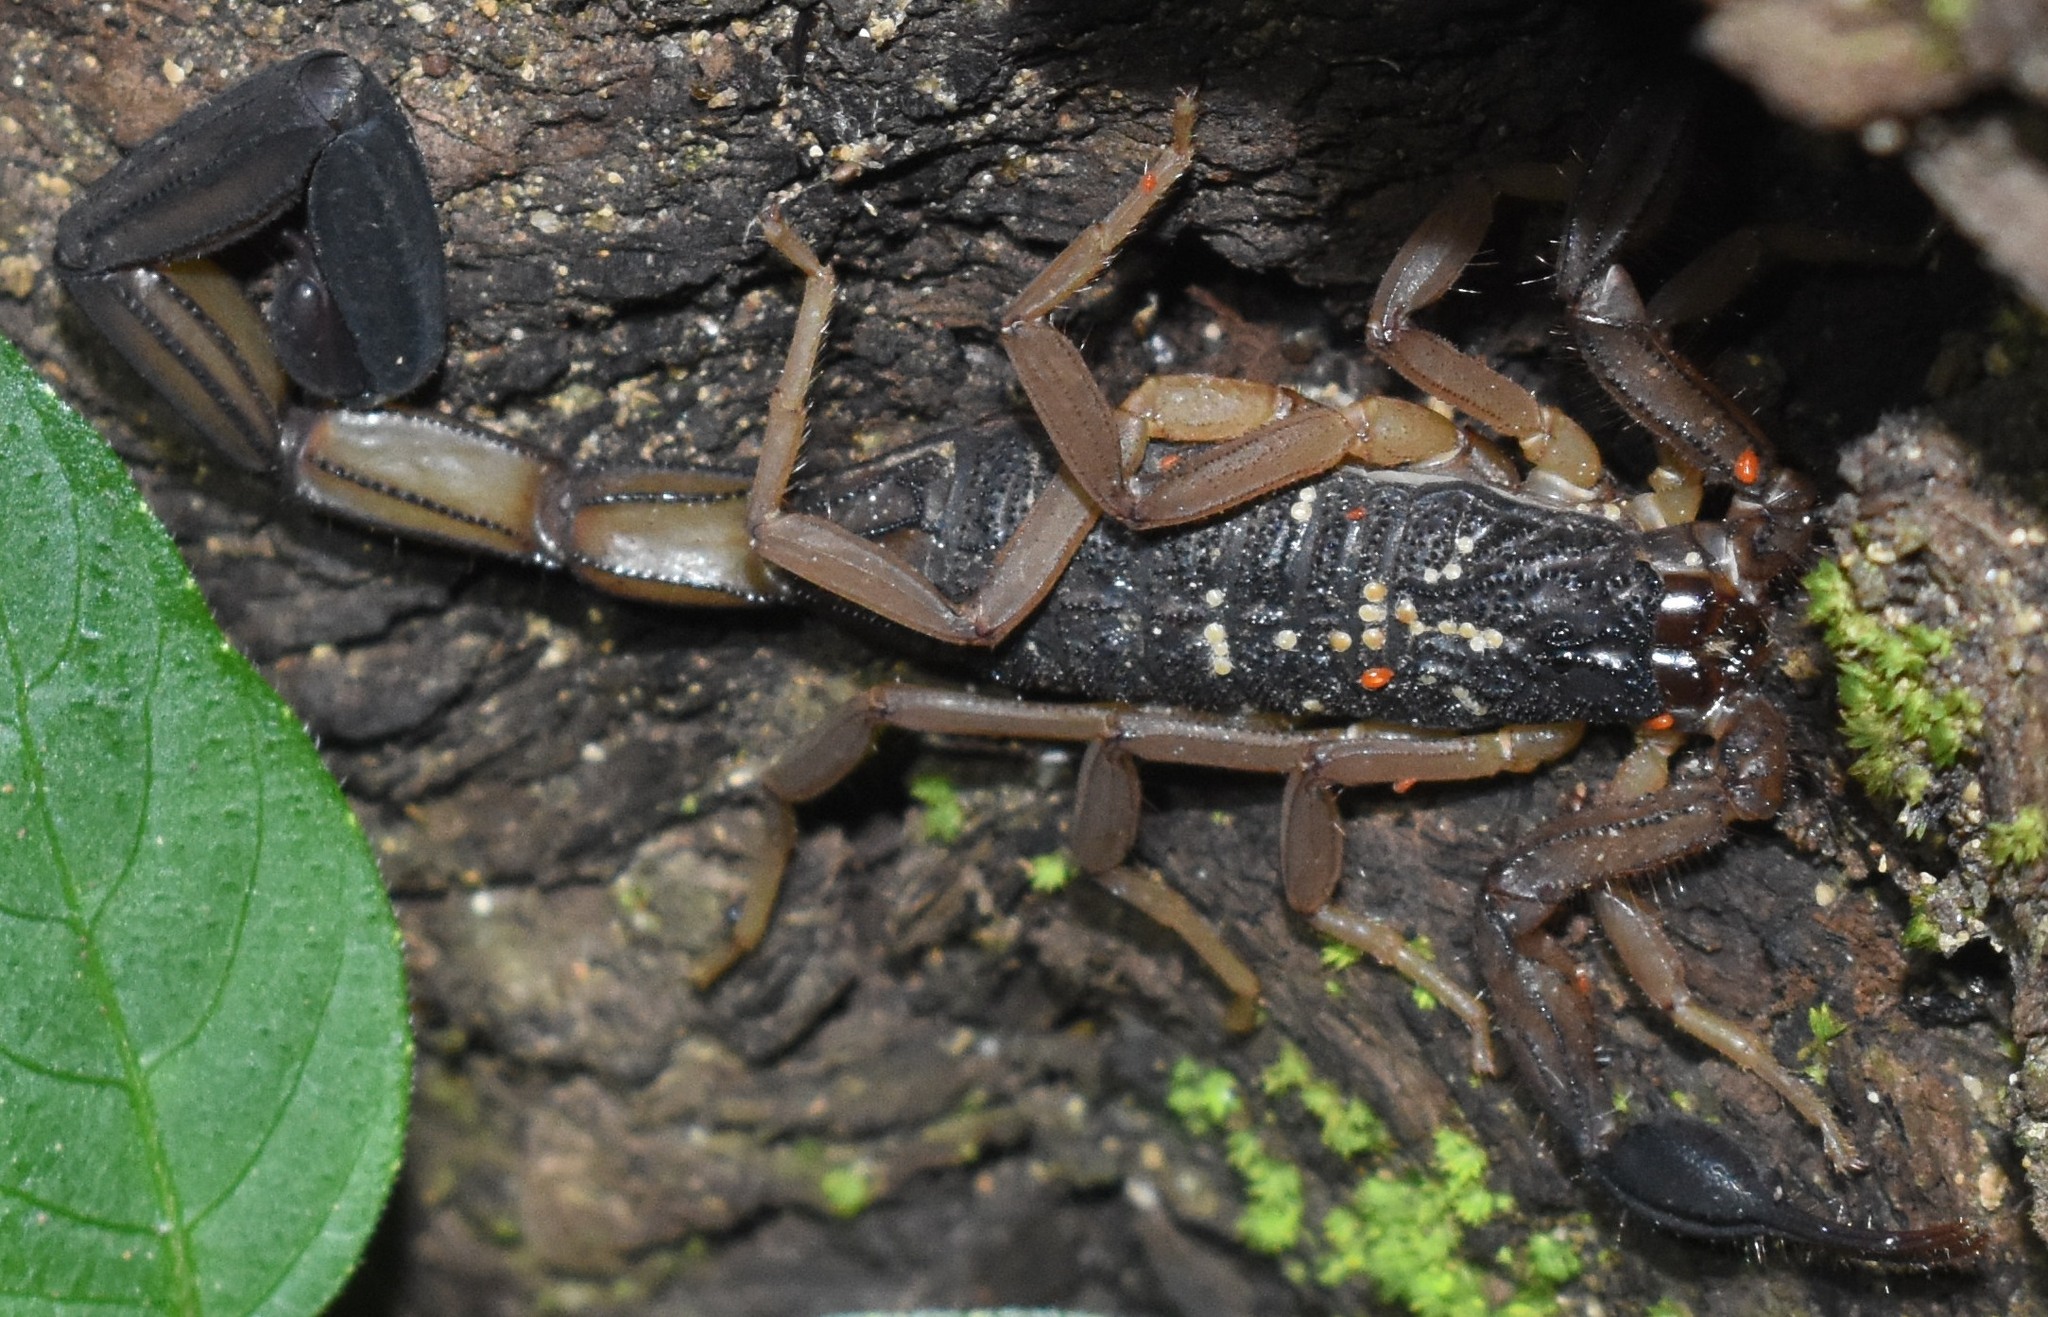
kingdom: Animalia
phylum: Arthropoda
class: Arachnida
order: Scorpiones
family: Buthidae
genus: Centruroides
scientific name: Centruroides edwardsii
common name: Scorpions
